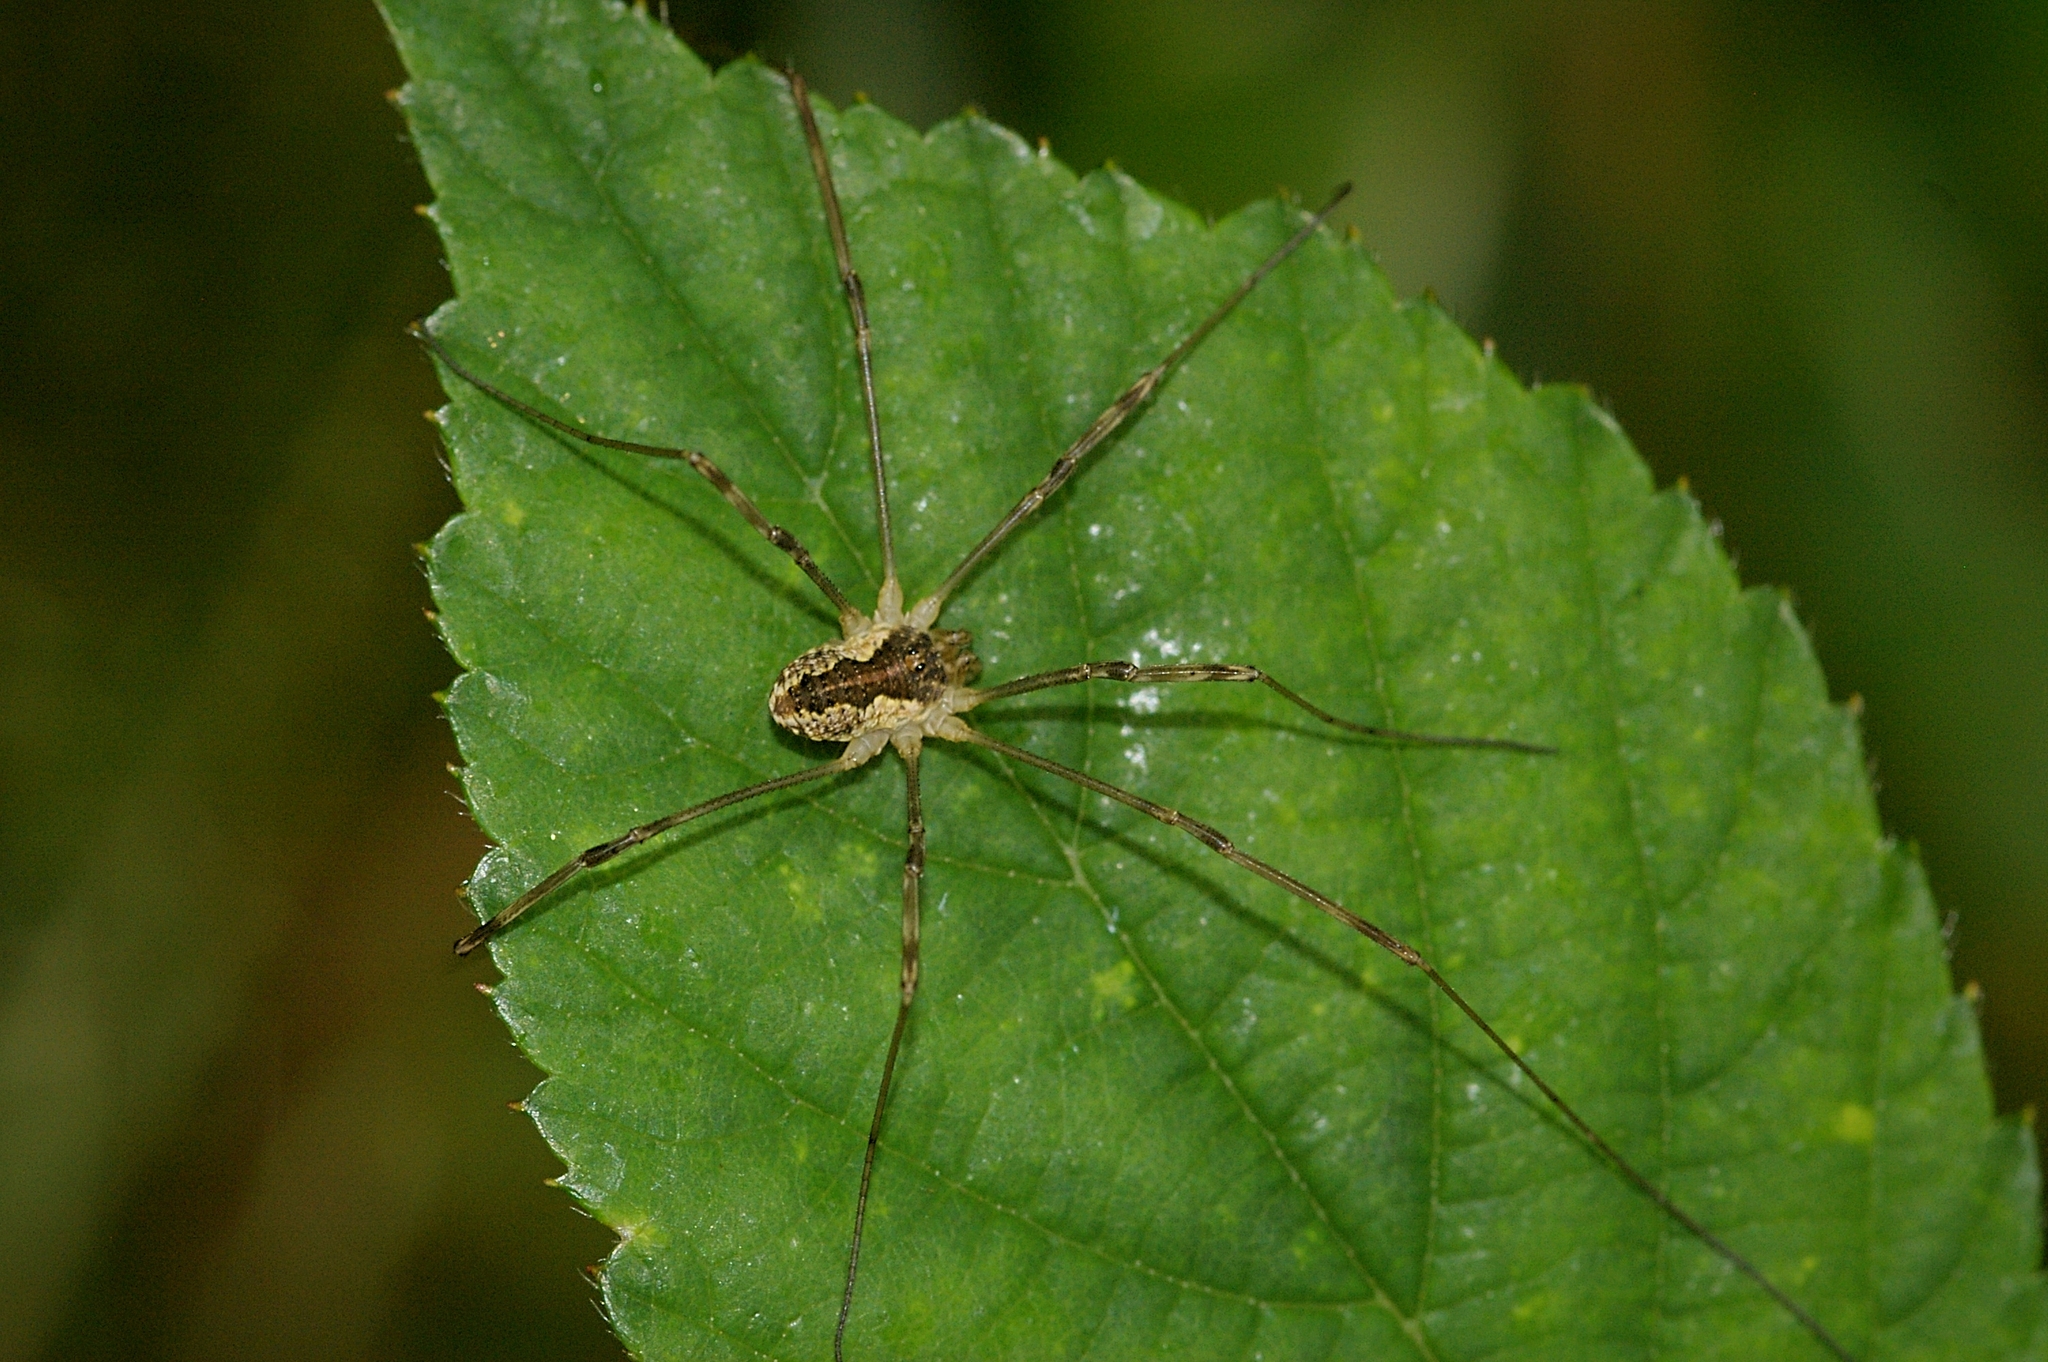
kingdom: Animalia
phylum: Arthropoda
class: Arachnida
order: Opiliones
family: Phalangiidae
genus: Mitopus
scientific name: Mitopus morio
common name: Saddleback harvestman
